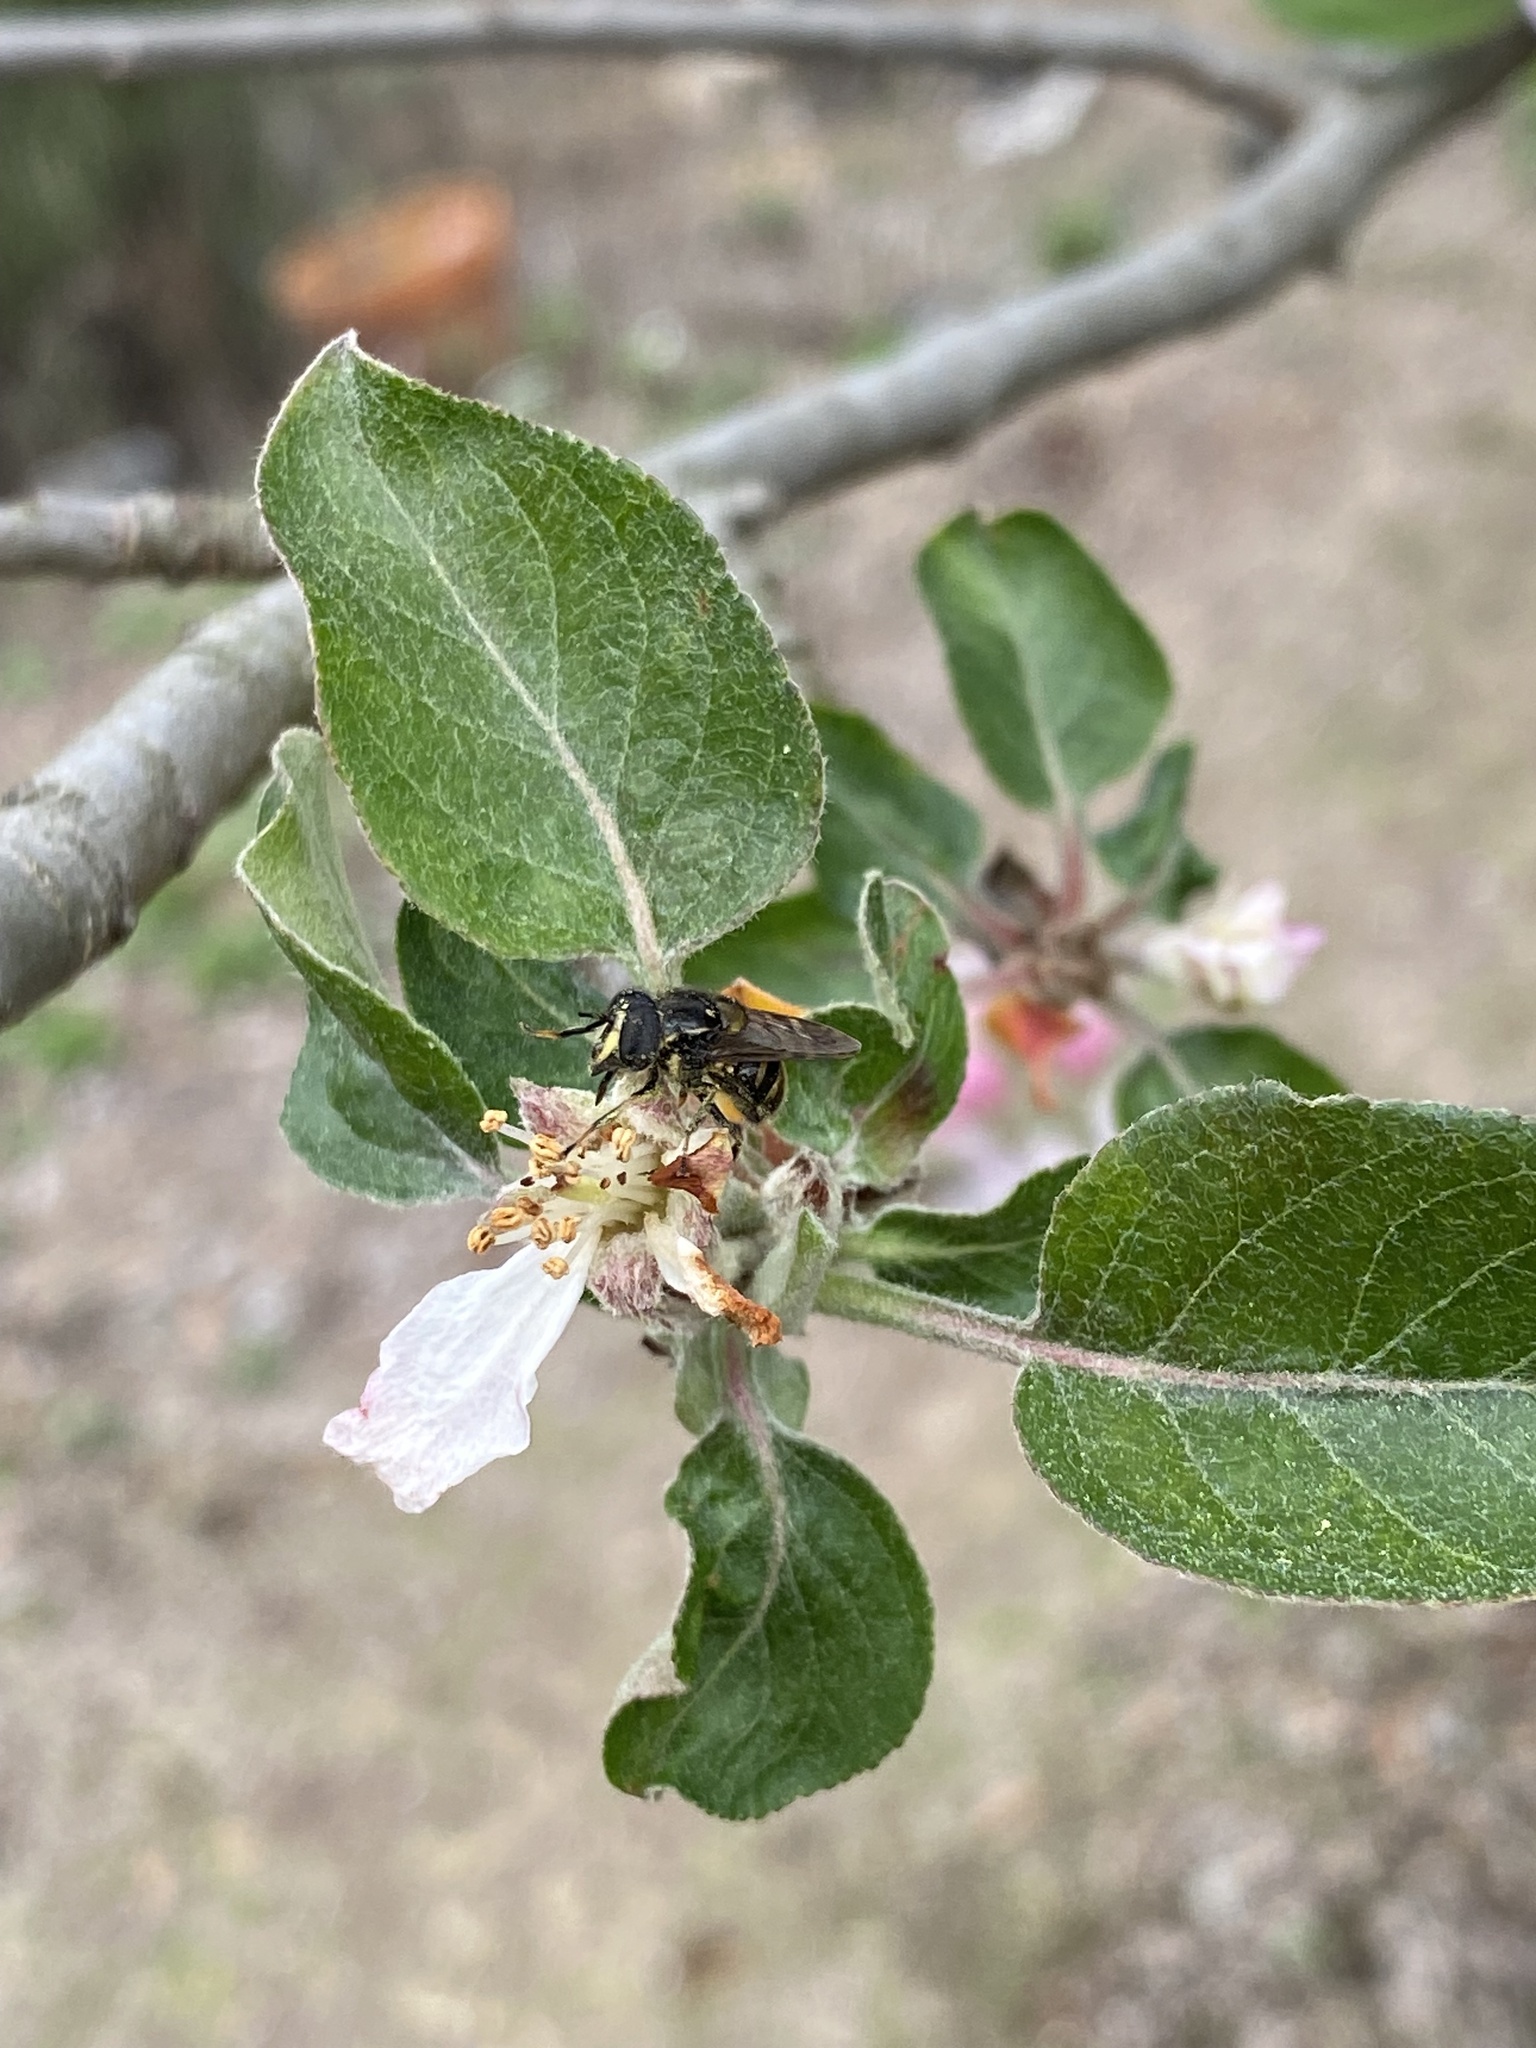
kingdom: Animalia
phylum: Arthropoda
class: Insecta
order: Diptera
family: Syrphidae
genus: Copestylum
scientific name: Copestylum vittatum
